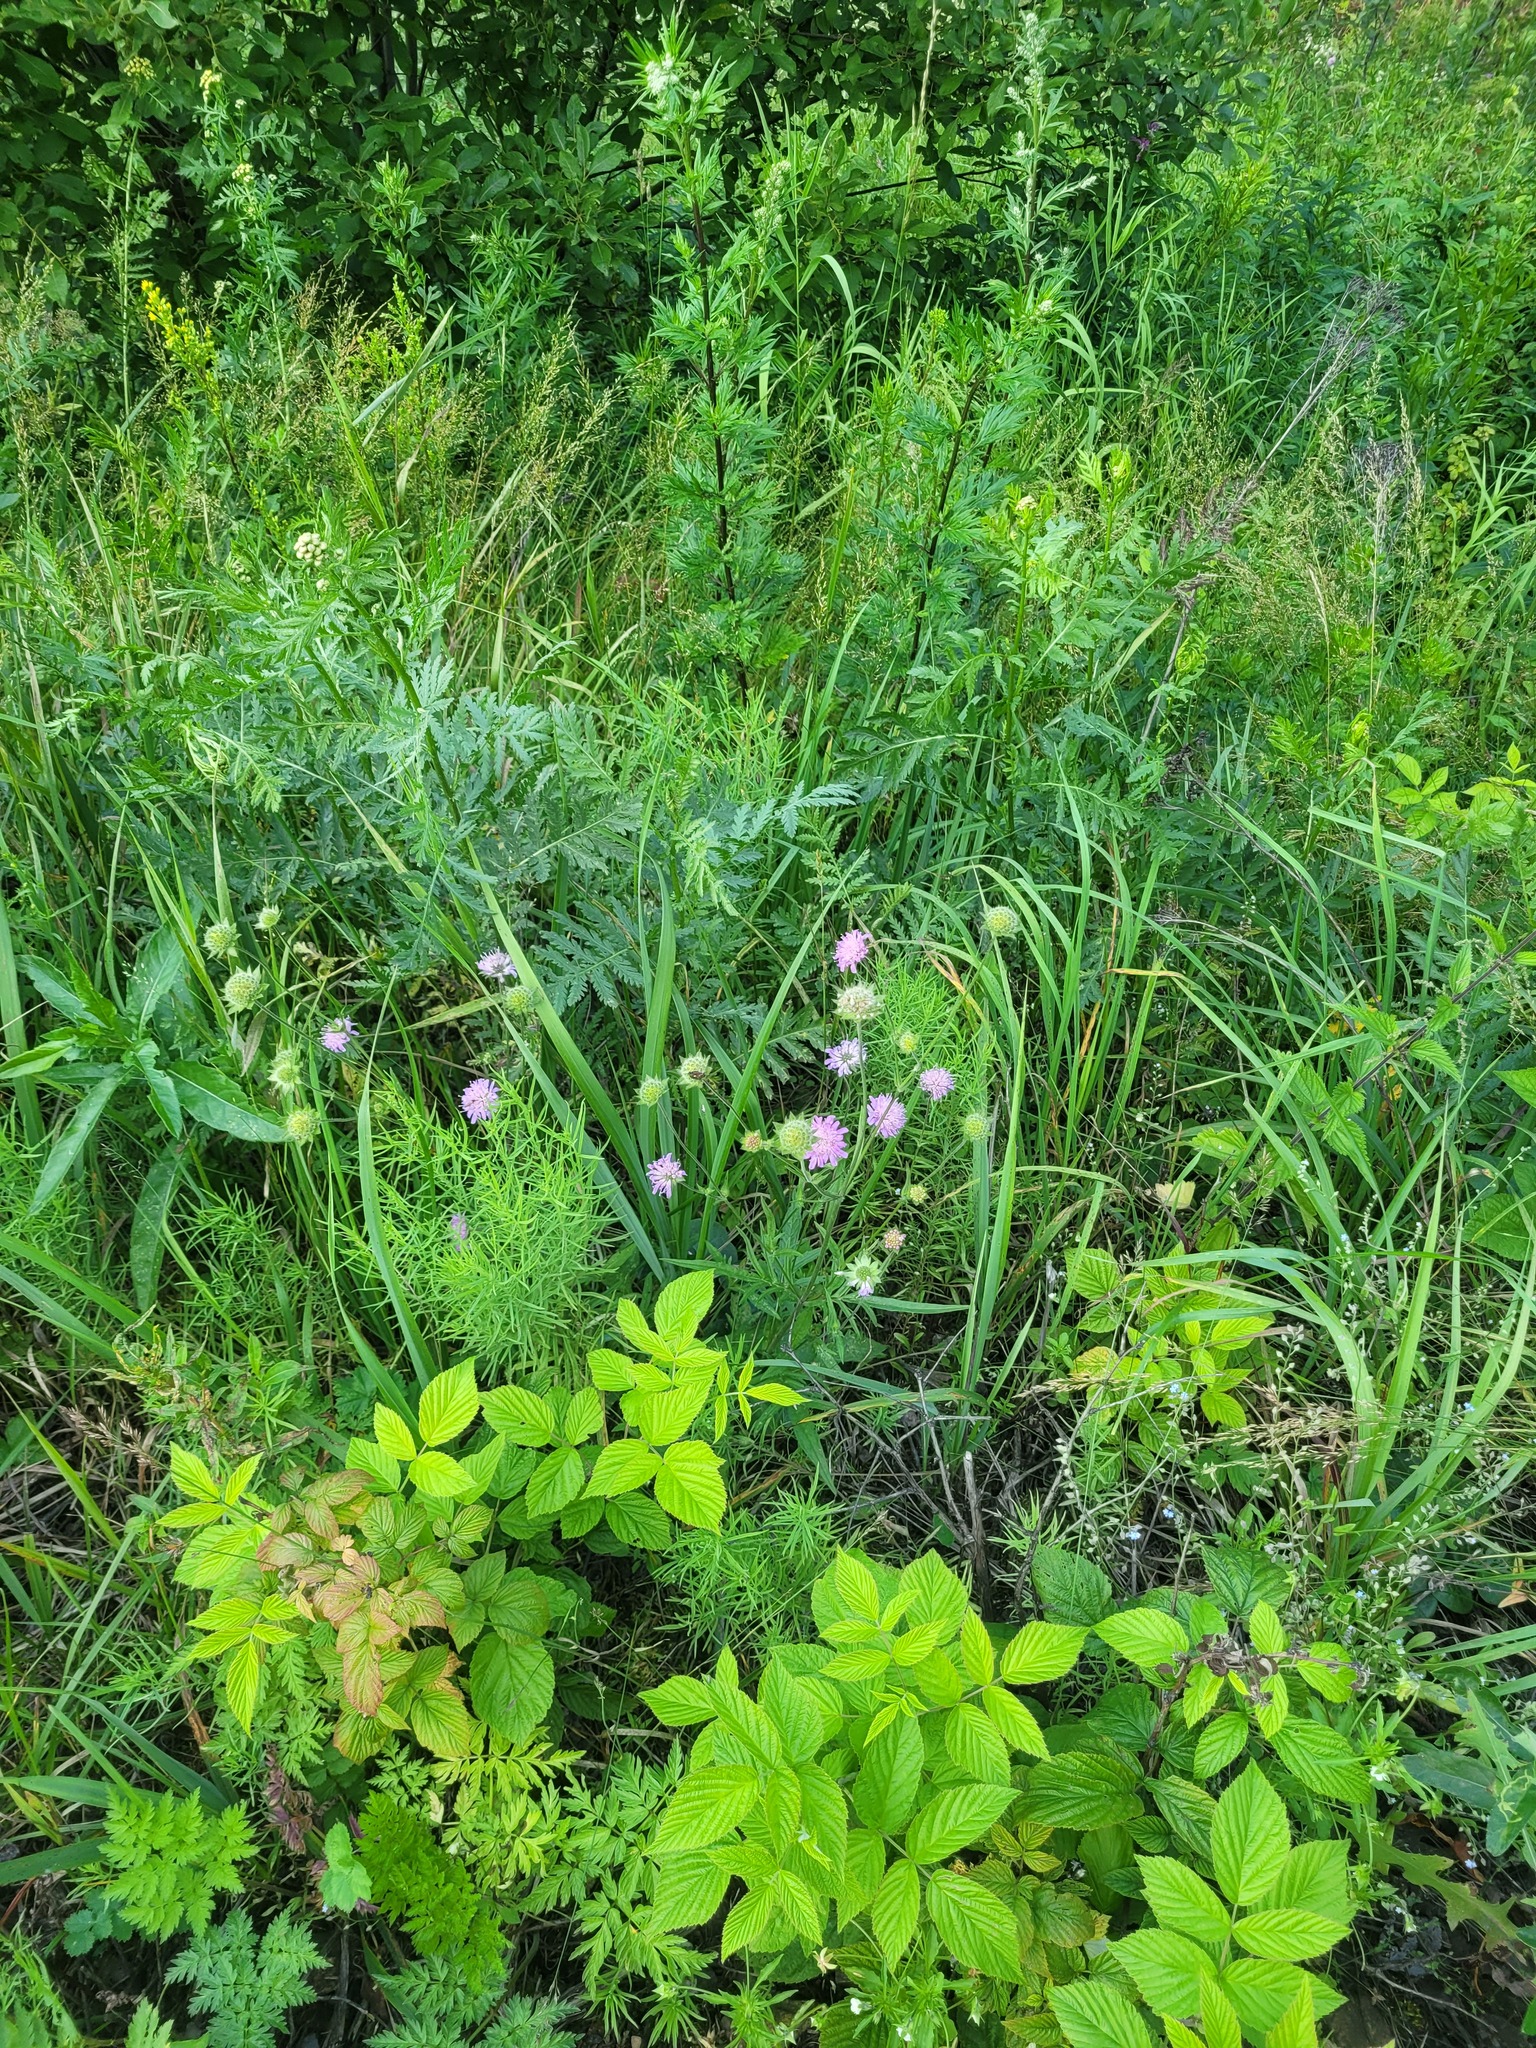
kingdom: Plantae
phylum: Tracheophyta
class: Magnoliopsida
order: Dipsacales
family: Caprifoliaceae
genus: Knautia
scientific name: Knautia arvensis
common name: Field scabiosa
